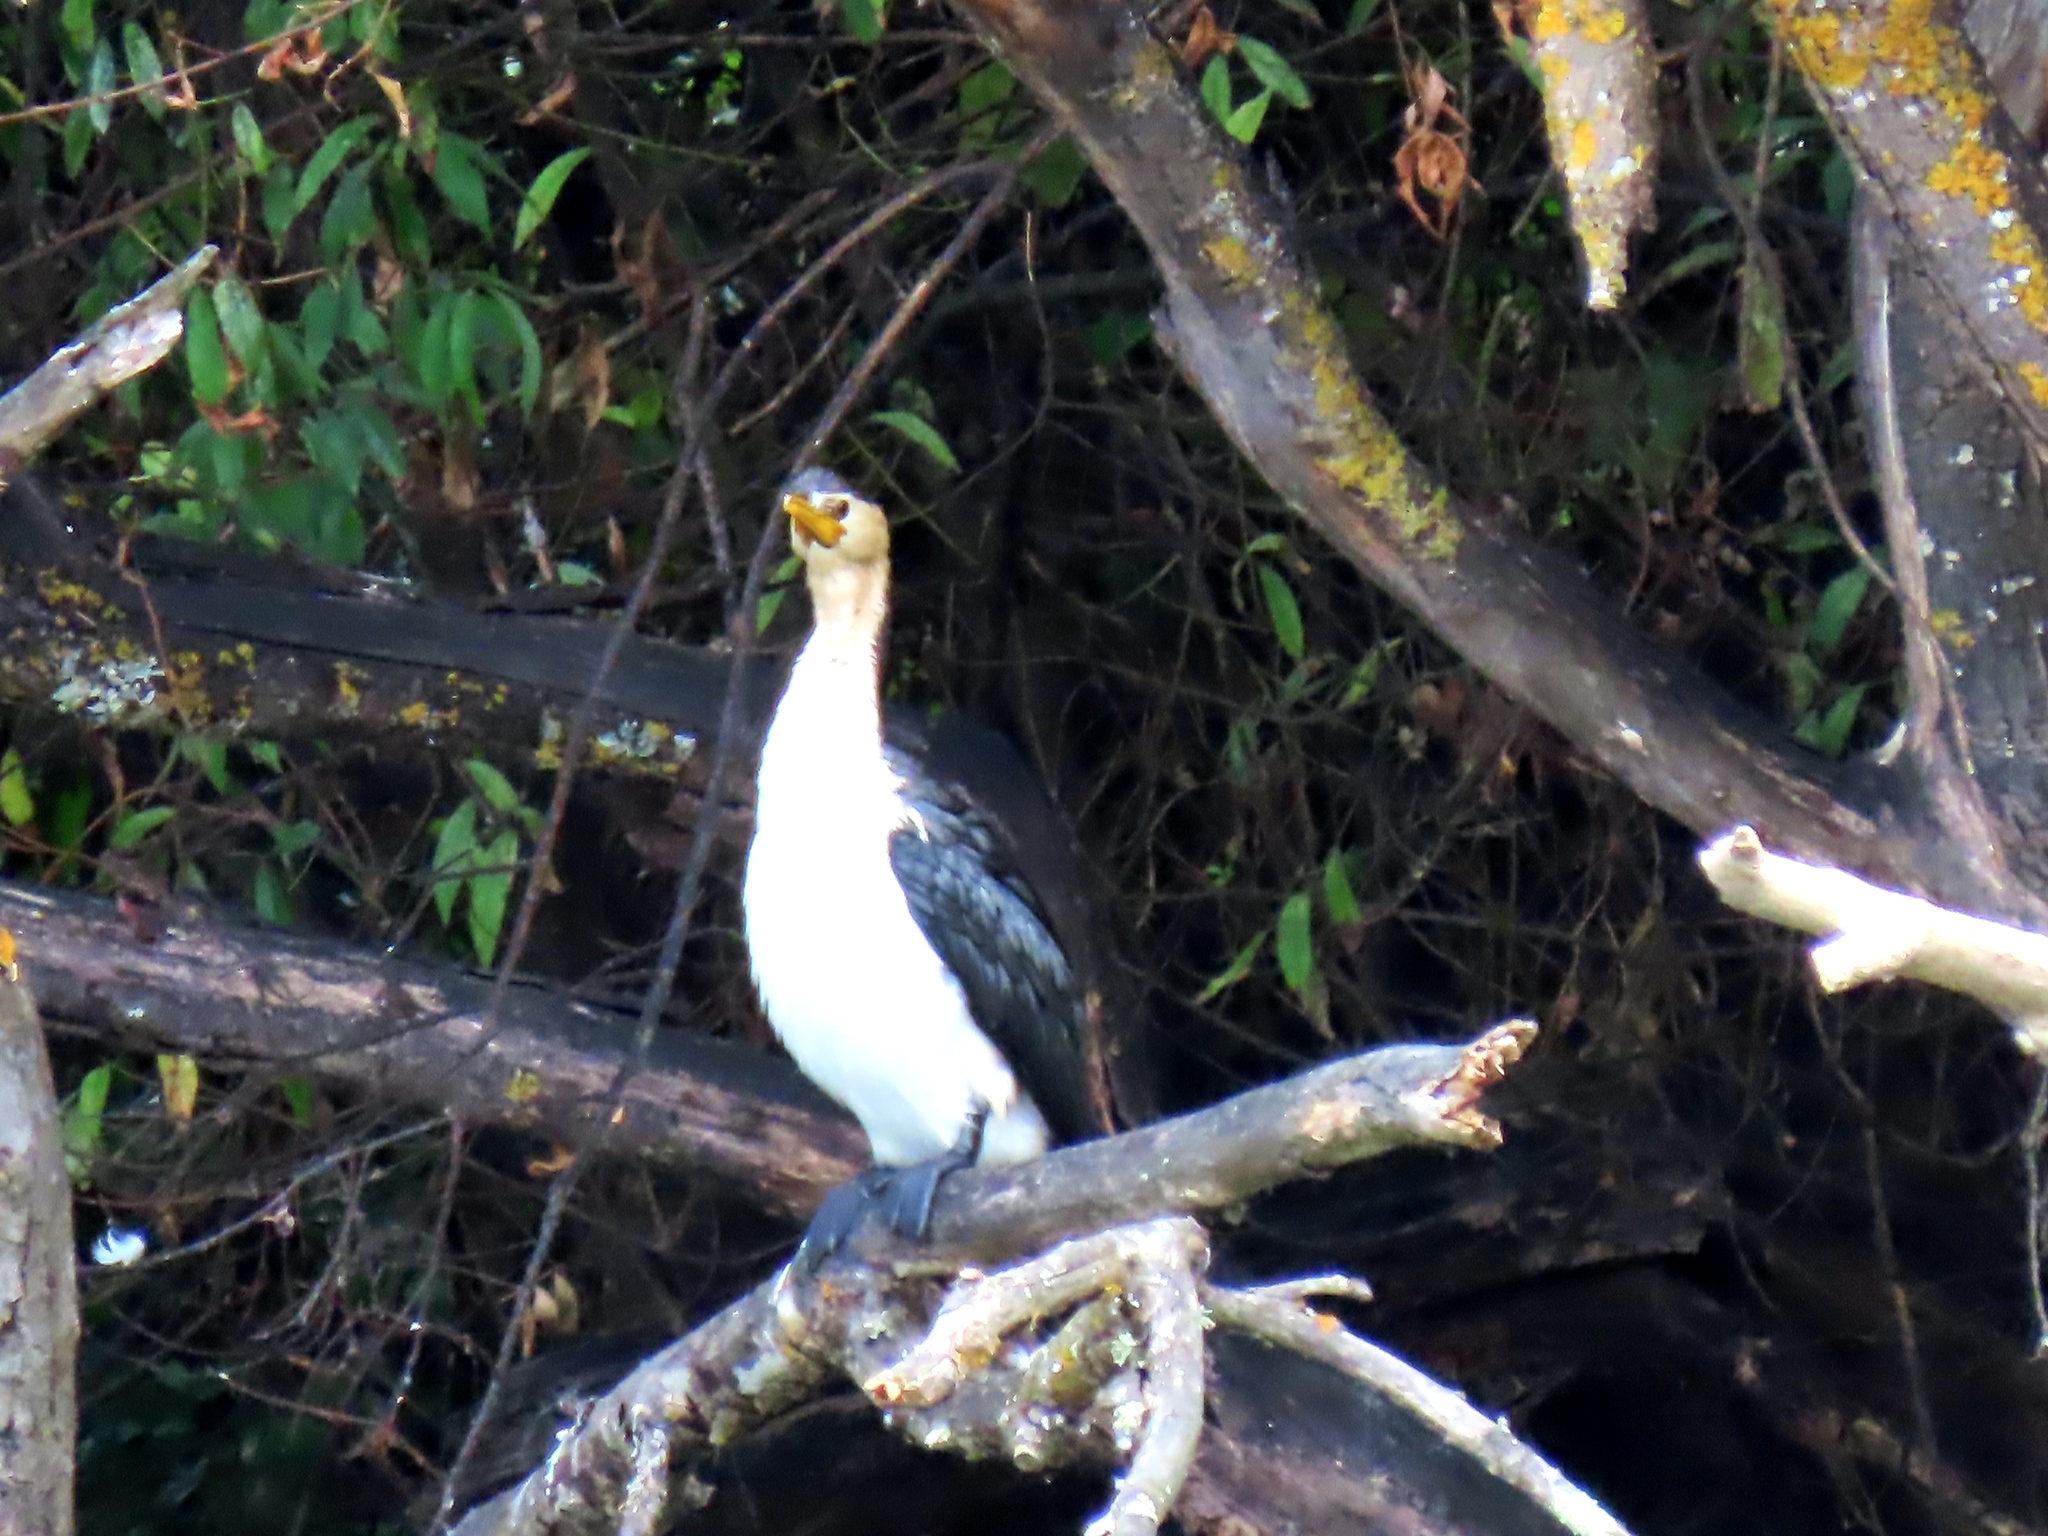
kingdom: Animalia
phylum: Chordata
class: Aves
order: Suliformes
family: Phalacrocoracidae
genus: Microcarbo
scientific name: Microcarbo melanoleucos
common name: Little pied cormorant
